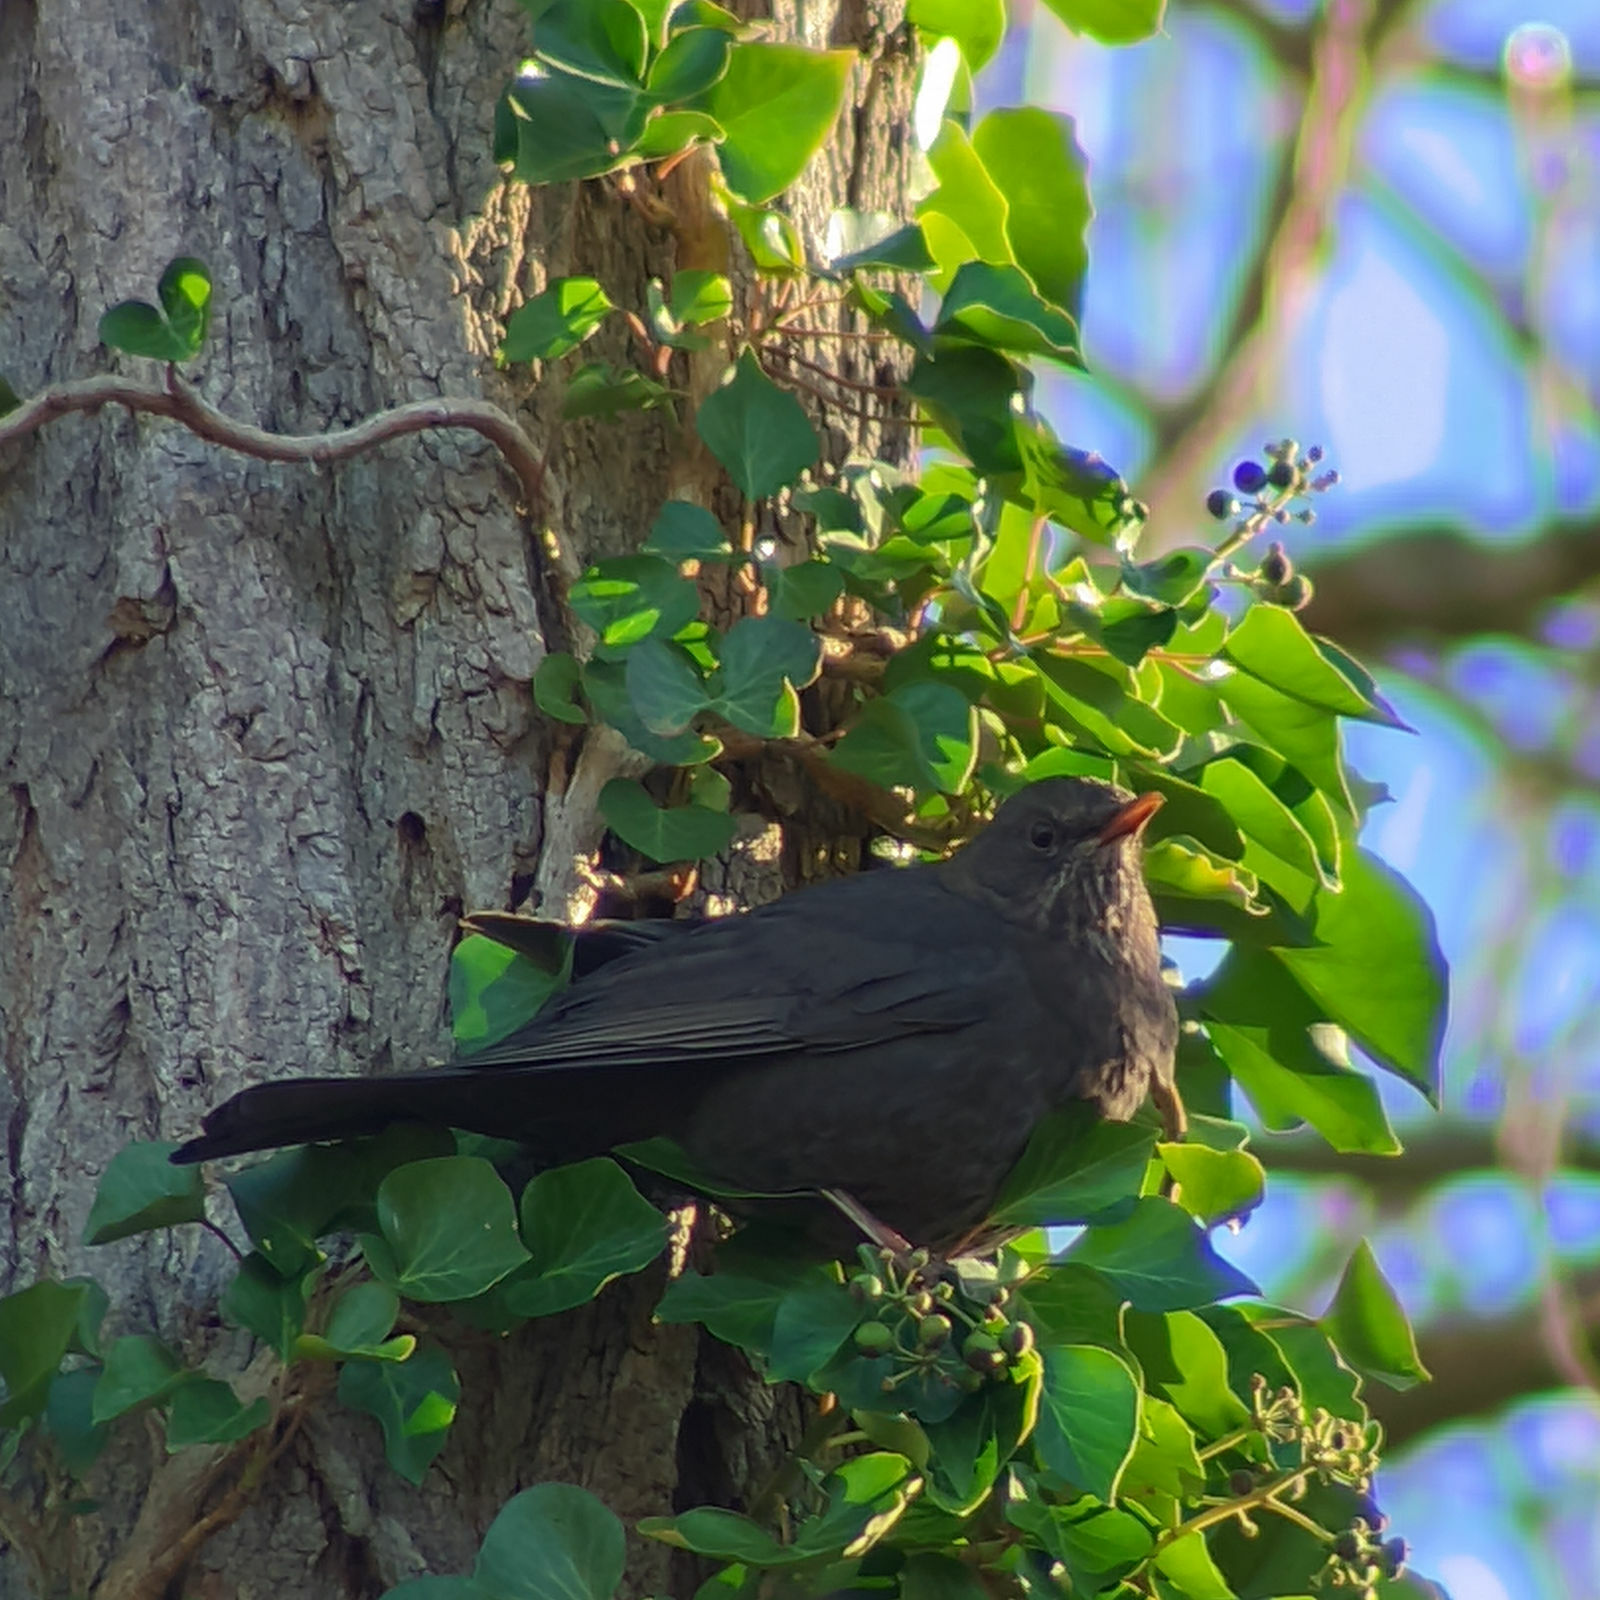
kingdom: Animalia
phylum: Chordata
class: Aves
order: Passeriformes
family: Turdidae
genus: Turdus
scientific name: Turdus merula
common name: Common blackbird
